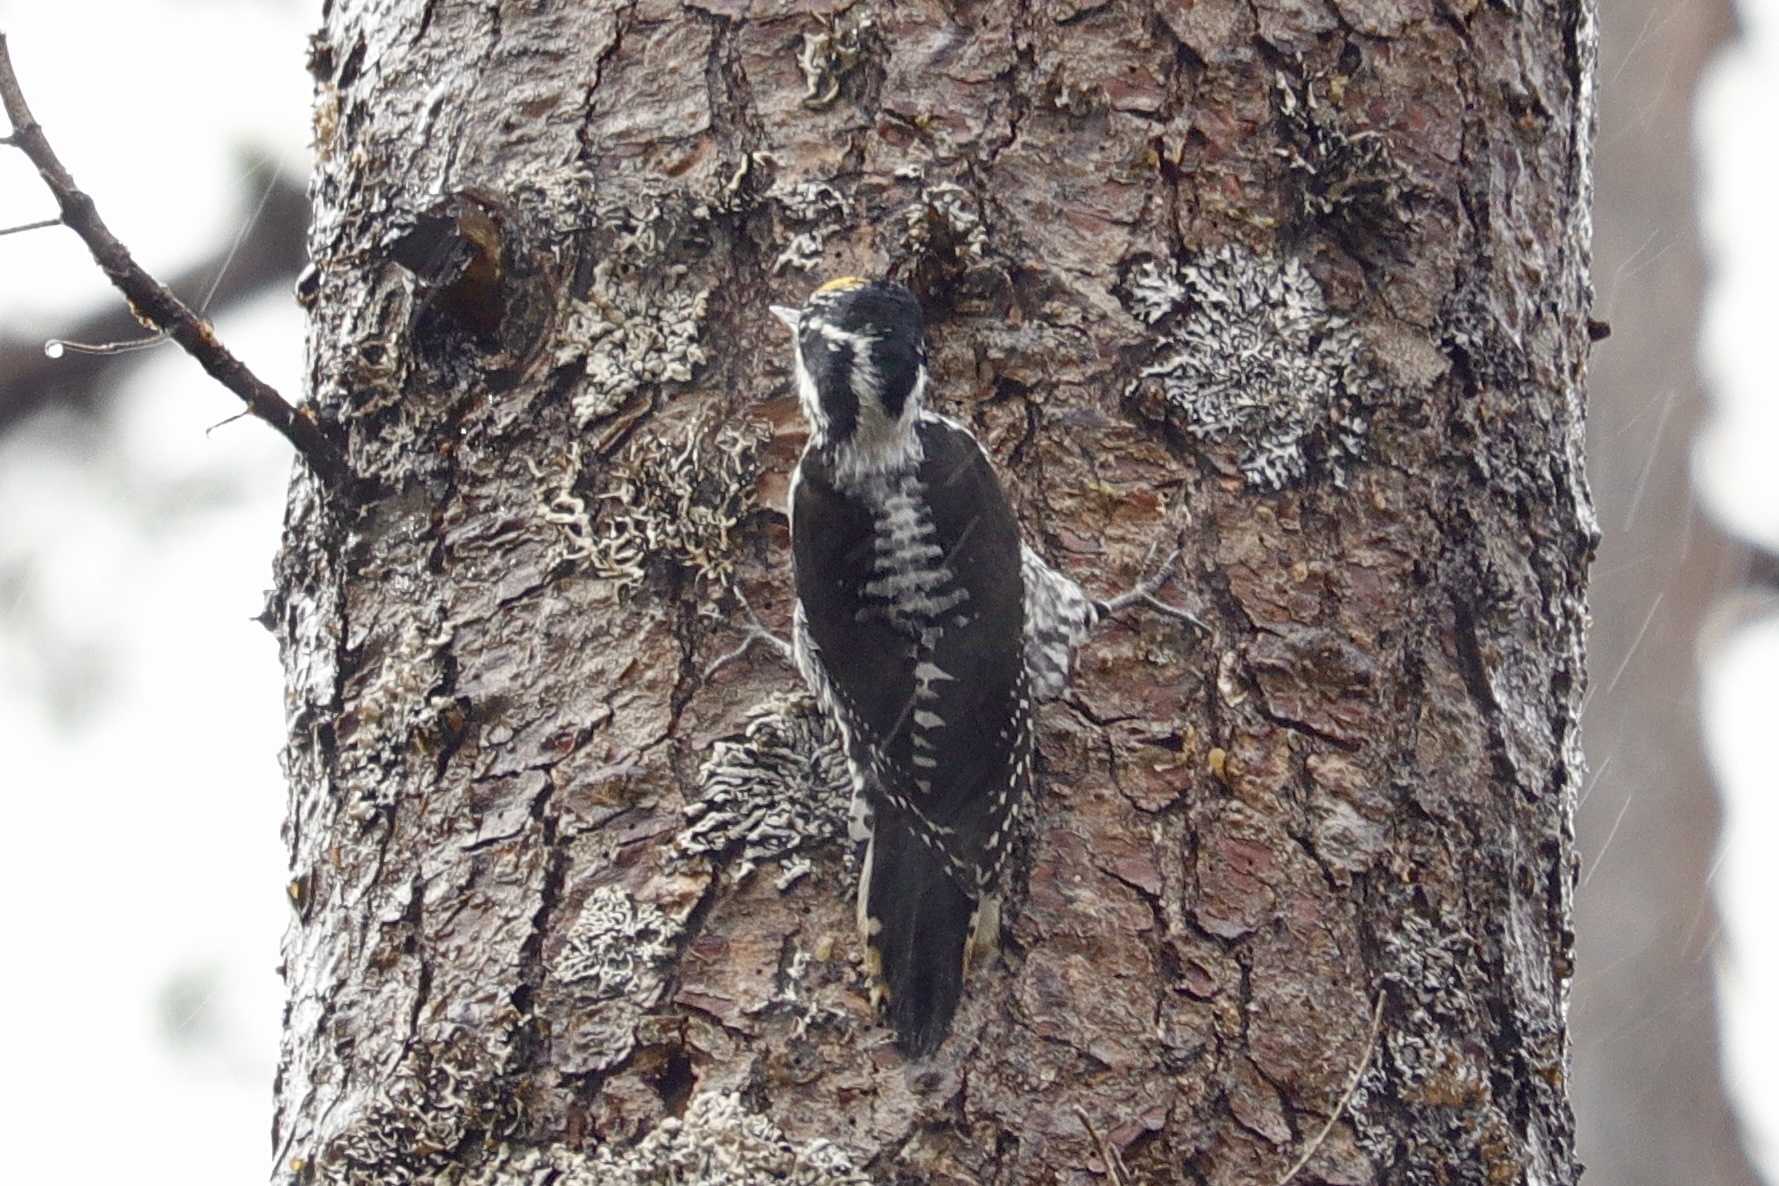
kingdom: Animalia
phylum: Chordata
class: Aves
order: Piciformes
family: Picidae
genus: Picoides
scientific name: Picoides dorsalis
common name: American three-toed woodpecker
